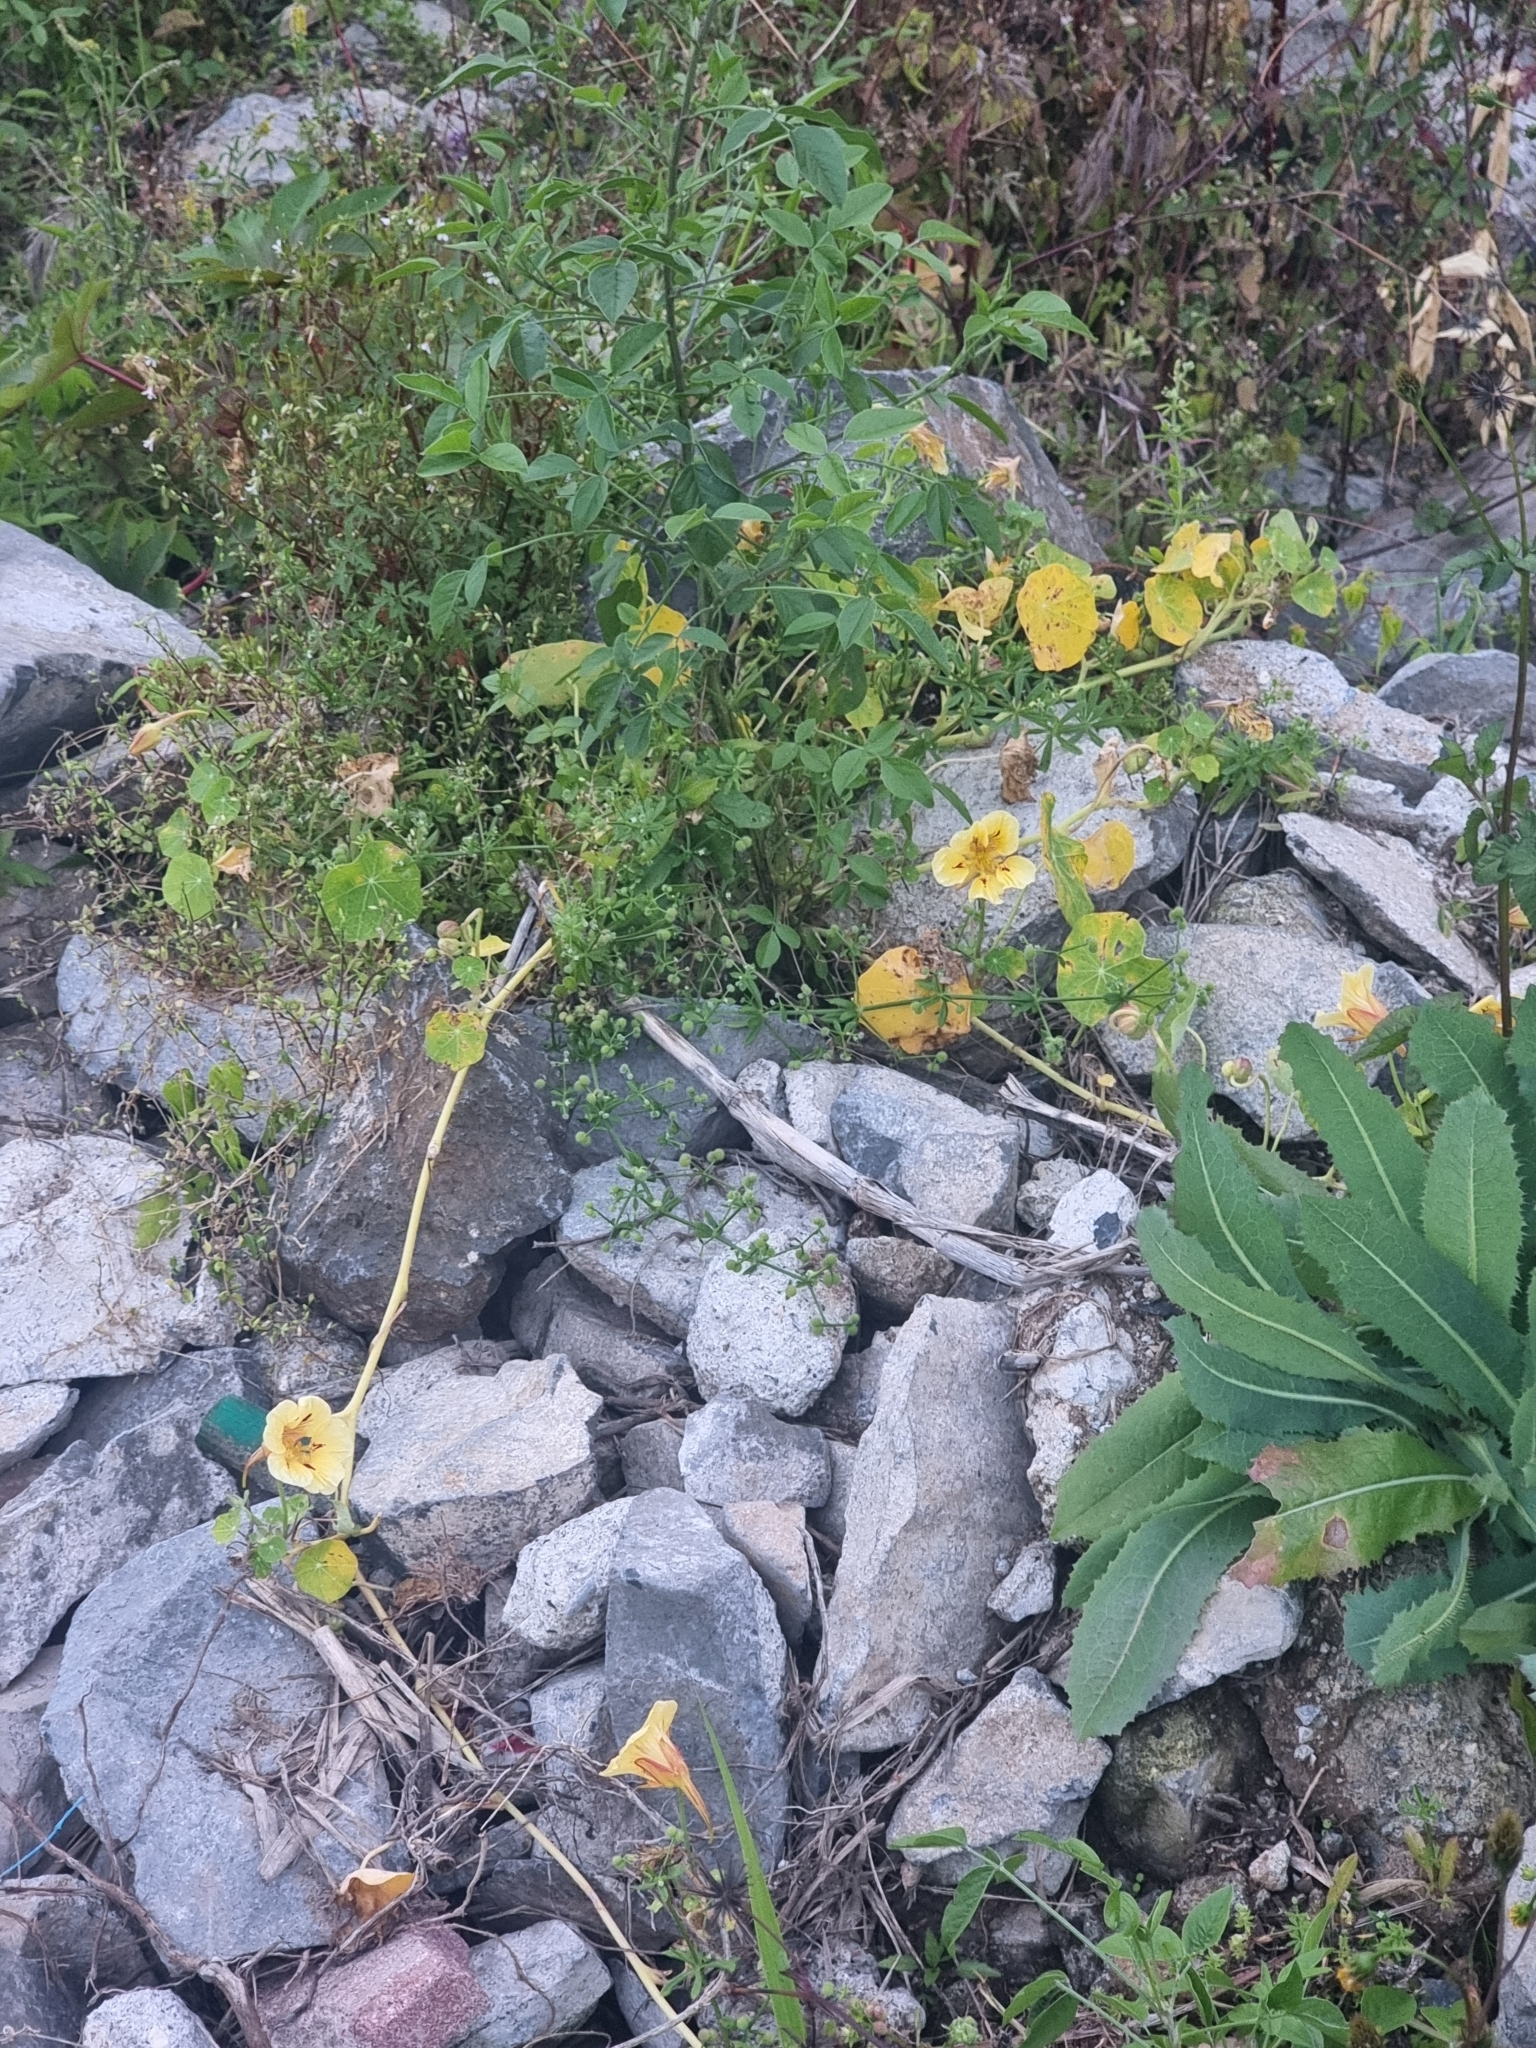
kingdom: Plantae
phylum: Tracheophyta
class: Magnoliopsida
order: Brassicales
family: Tropaeolaceae
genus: Tropaeolum
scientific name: Tropaeolum majus
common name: Nasturtium
